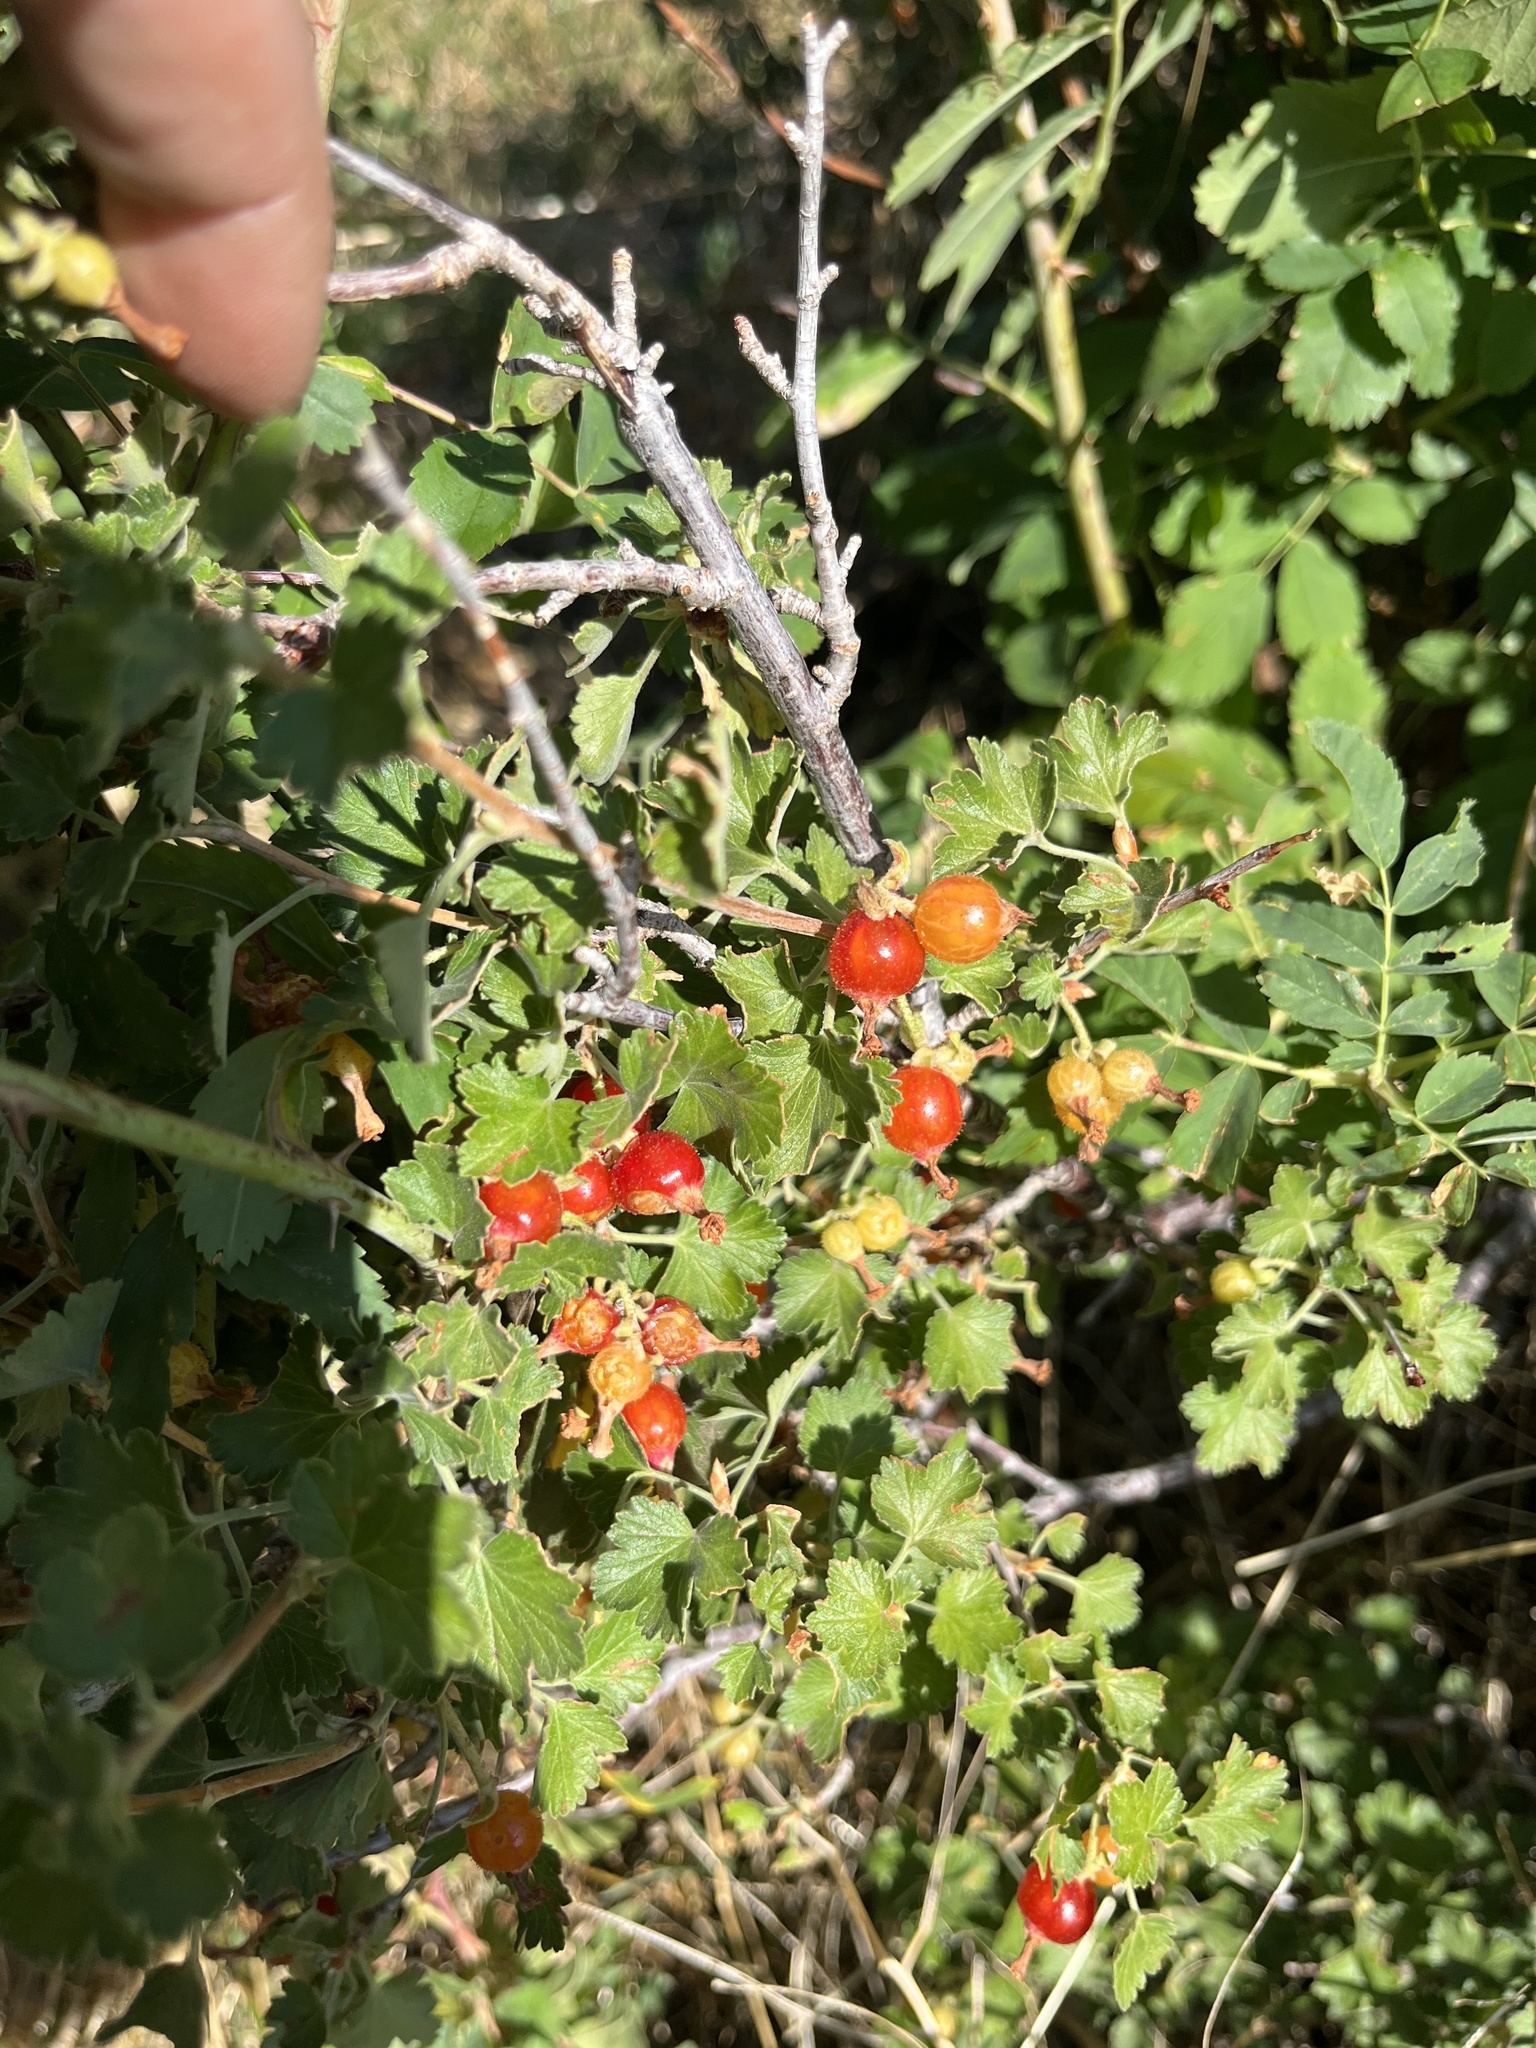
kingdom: Plantae
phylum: Tracheophyta
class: Magnoliopsida
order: Saxifragales
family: Grossulariaceae
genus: Ribes
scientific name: Ribes cereum
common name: Wax currant
